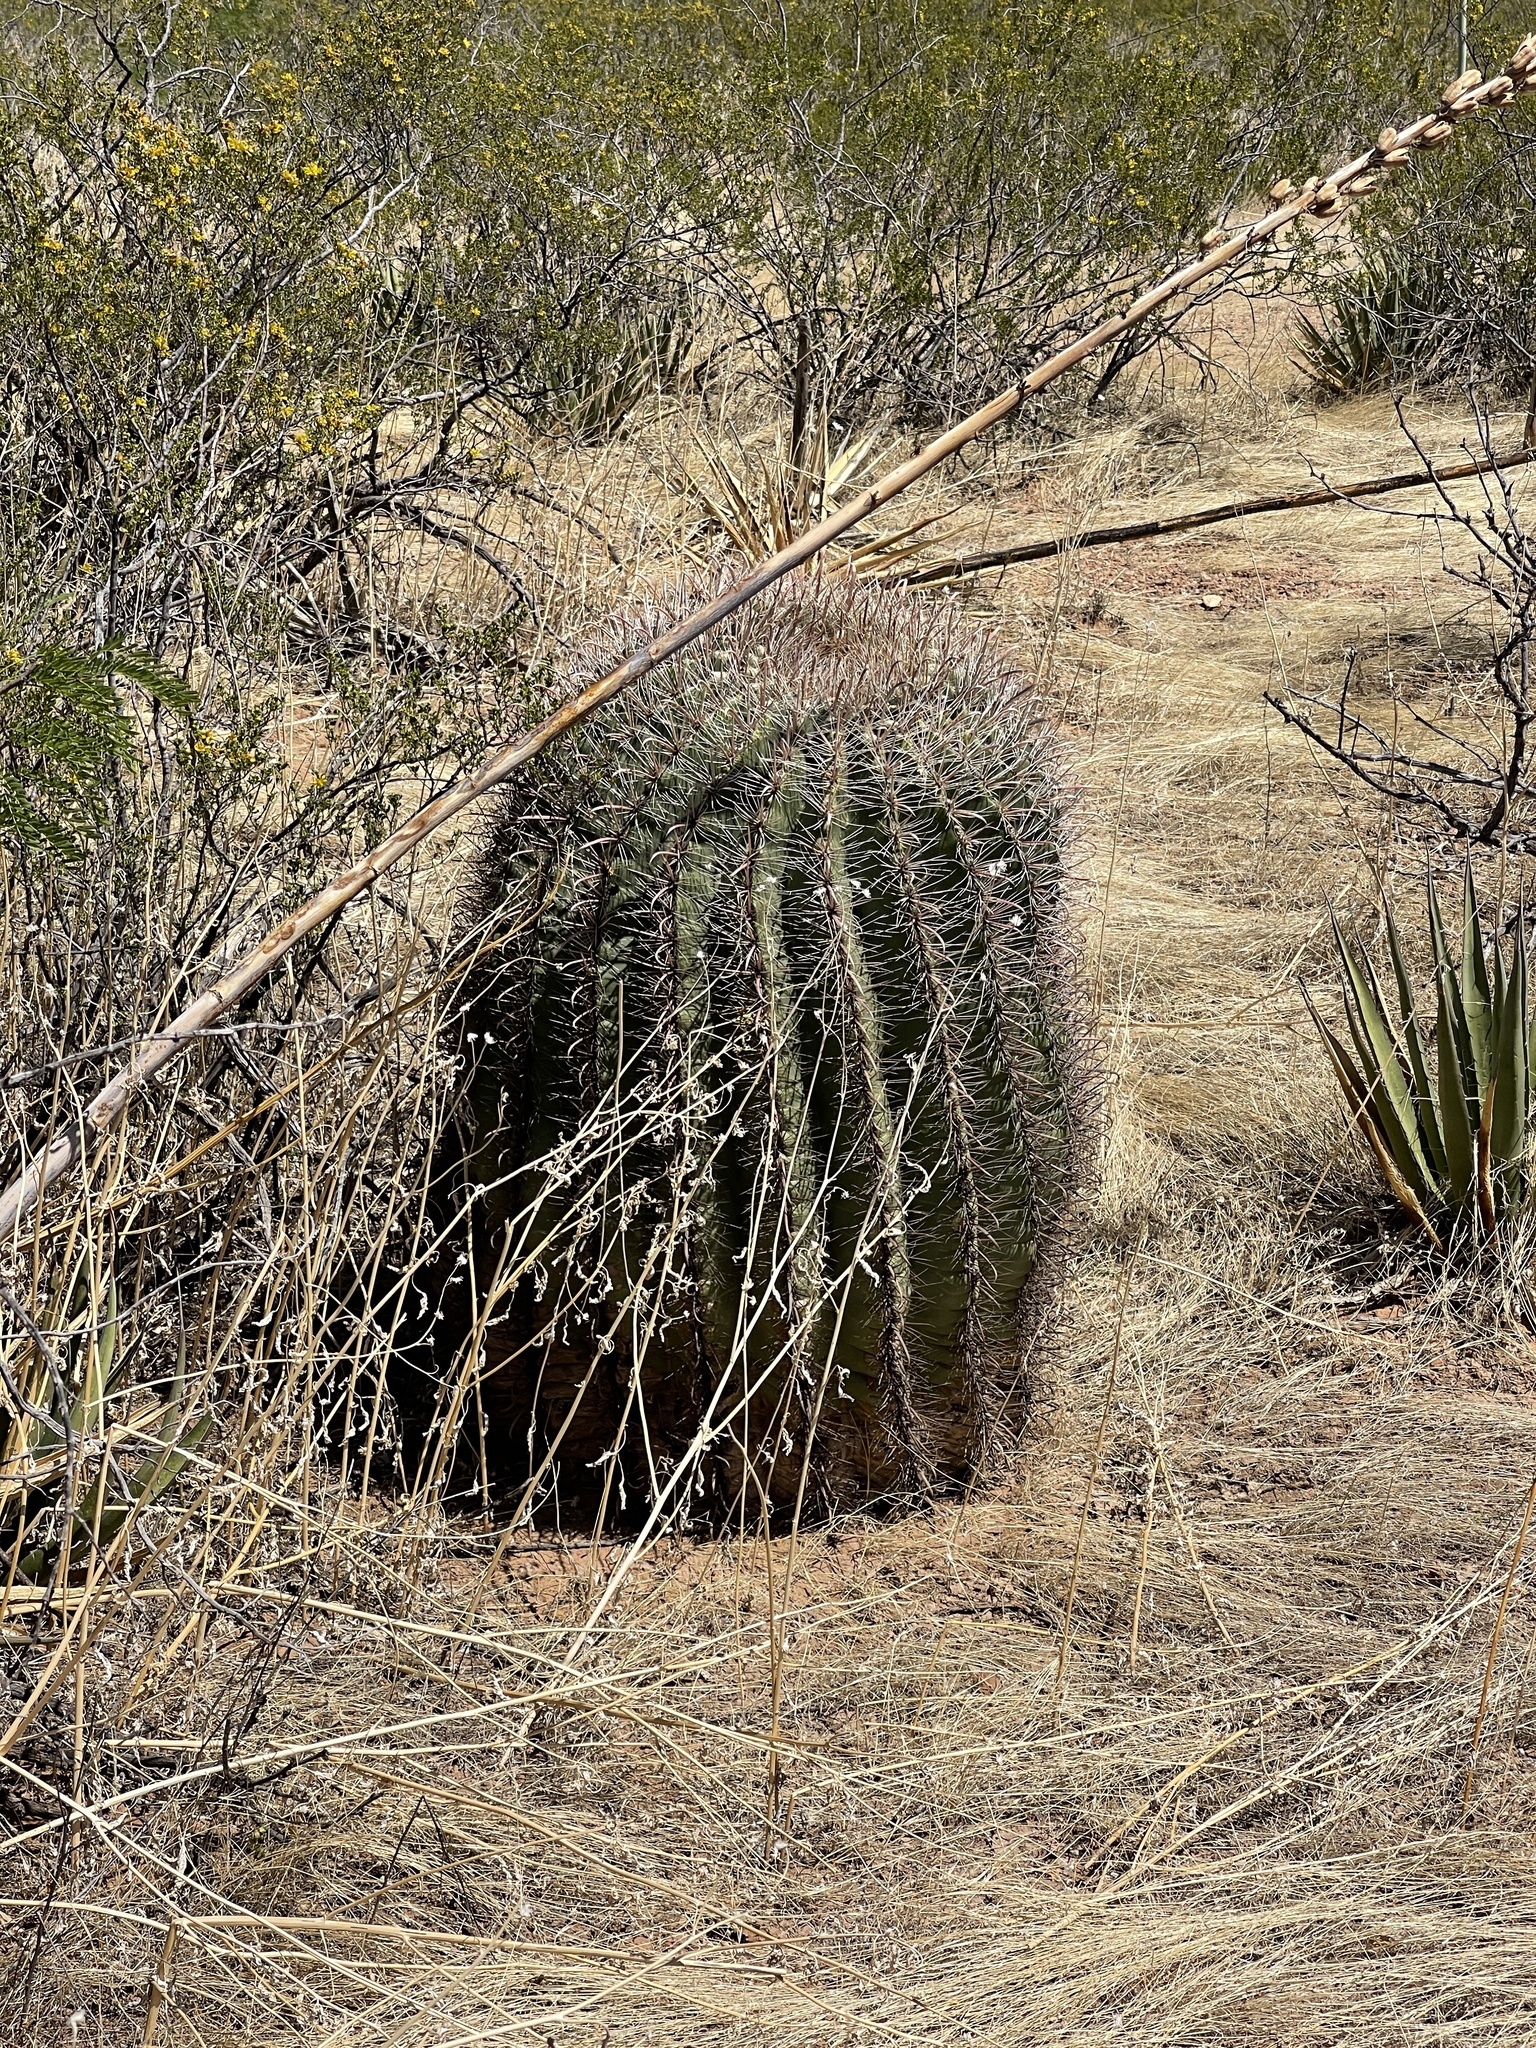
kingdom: Plantae
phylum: Tracheophyta
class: Magnoliopsida
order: Caryophyllales
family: Cactaceae
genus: Ferocactus
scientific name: Ferocactus wislizeni
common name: Candy barrel cactus
